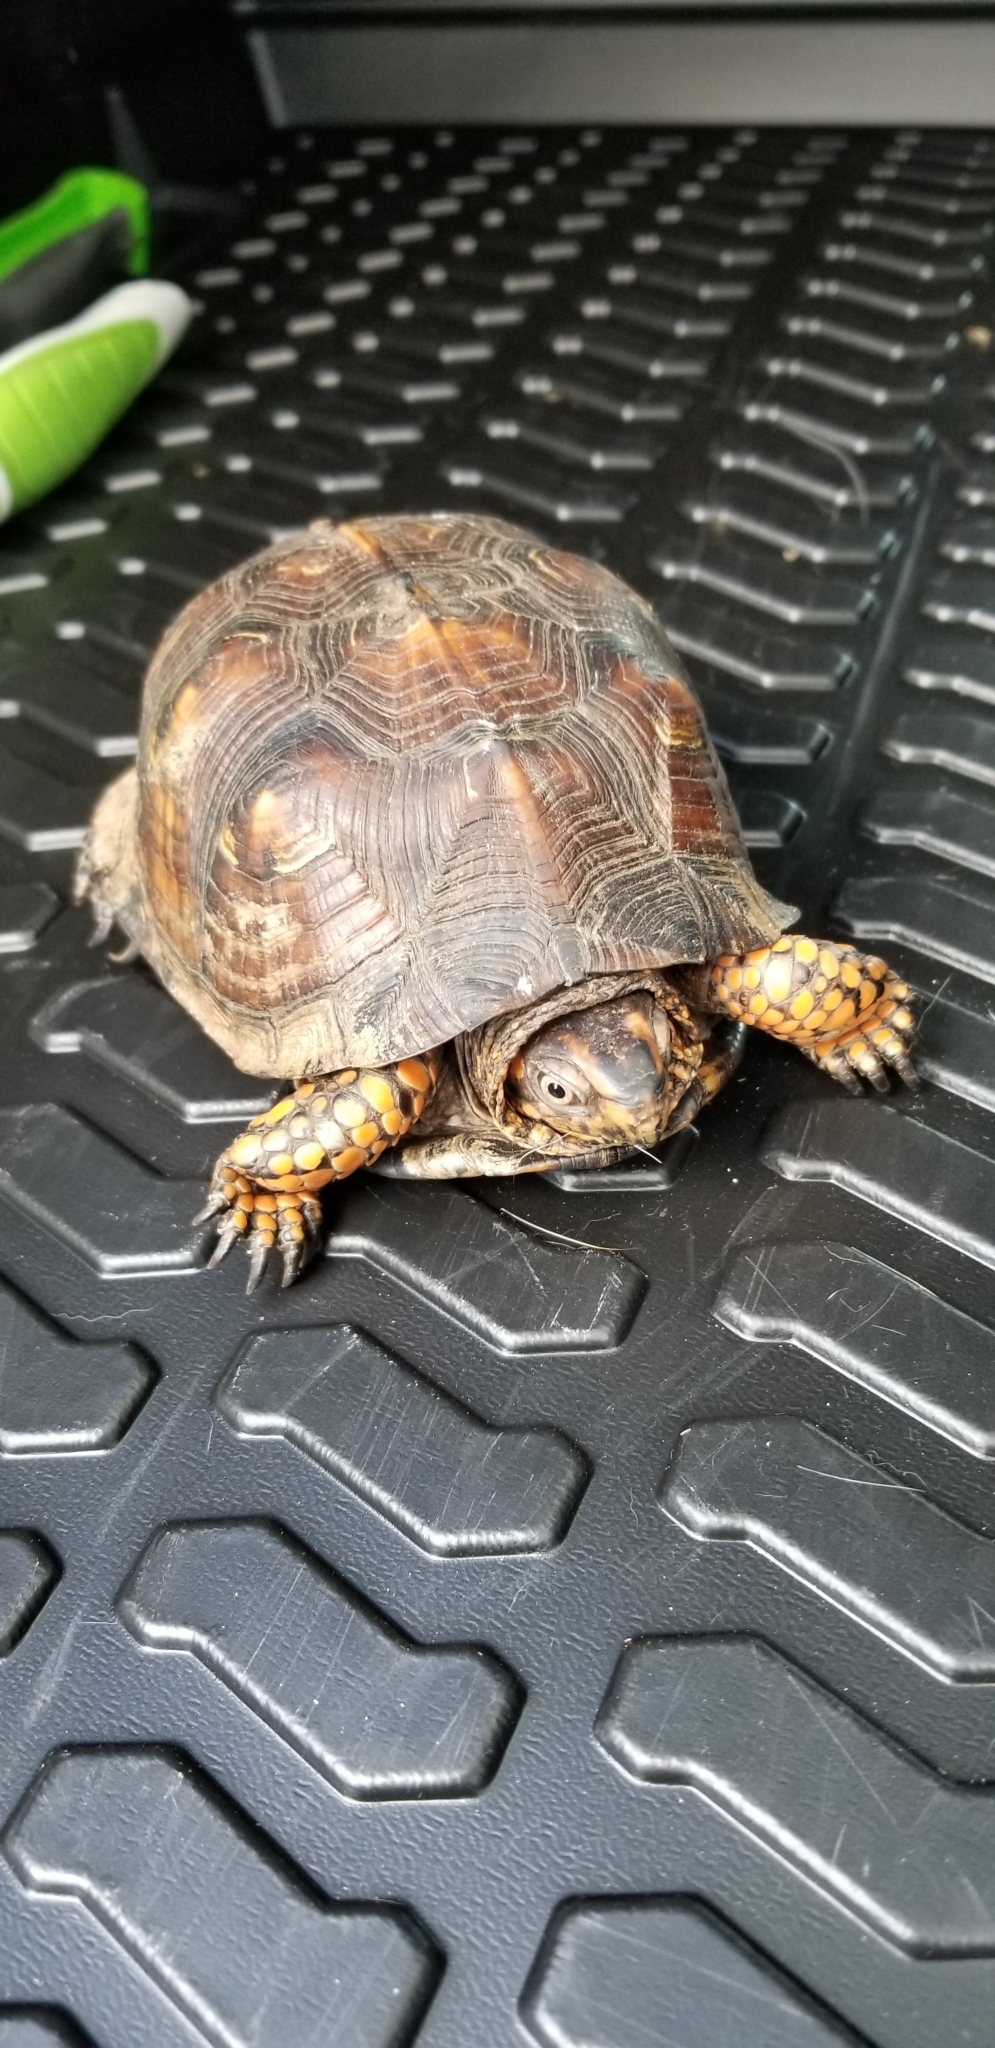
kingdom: Animalia
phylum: Chordata
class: Testudines
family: Emydidae
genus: Terrapene
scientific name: Terrapene carolina
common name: Common box turtle
